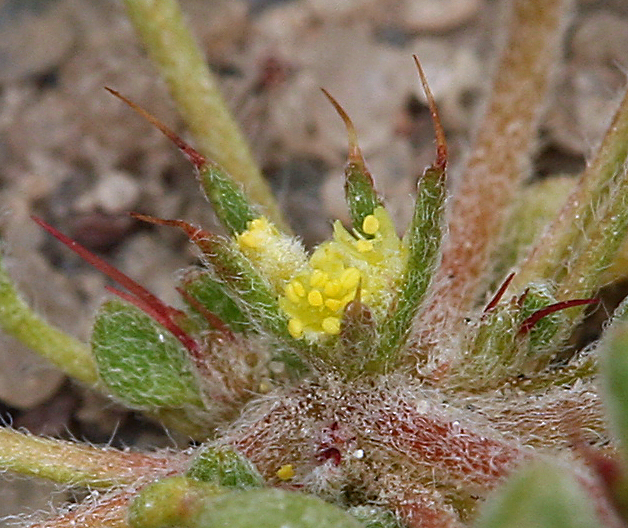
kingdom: Plantae
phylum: Tracheophyta
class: Magnoliopsida
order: Caryophyllales
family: Polygonaceae
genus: Goodmania
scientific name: Goodmania luteola
